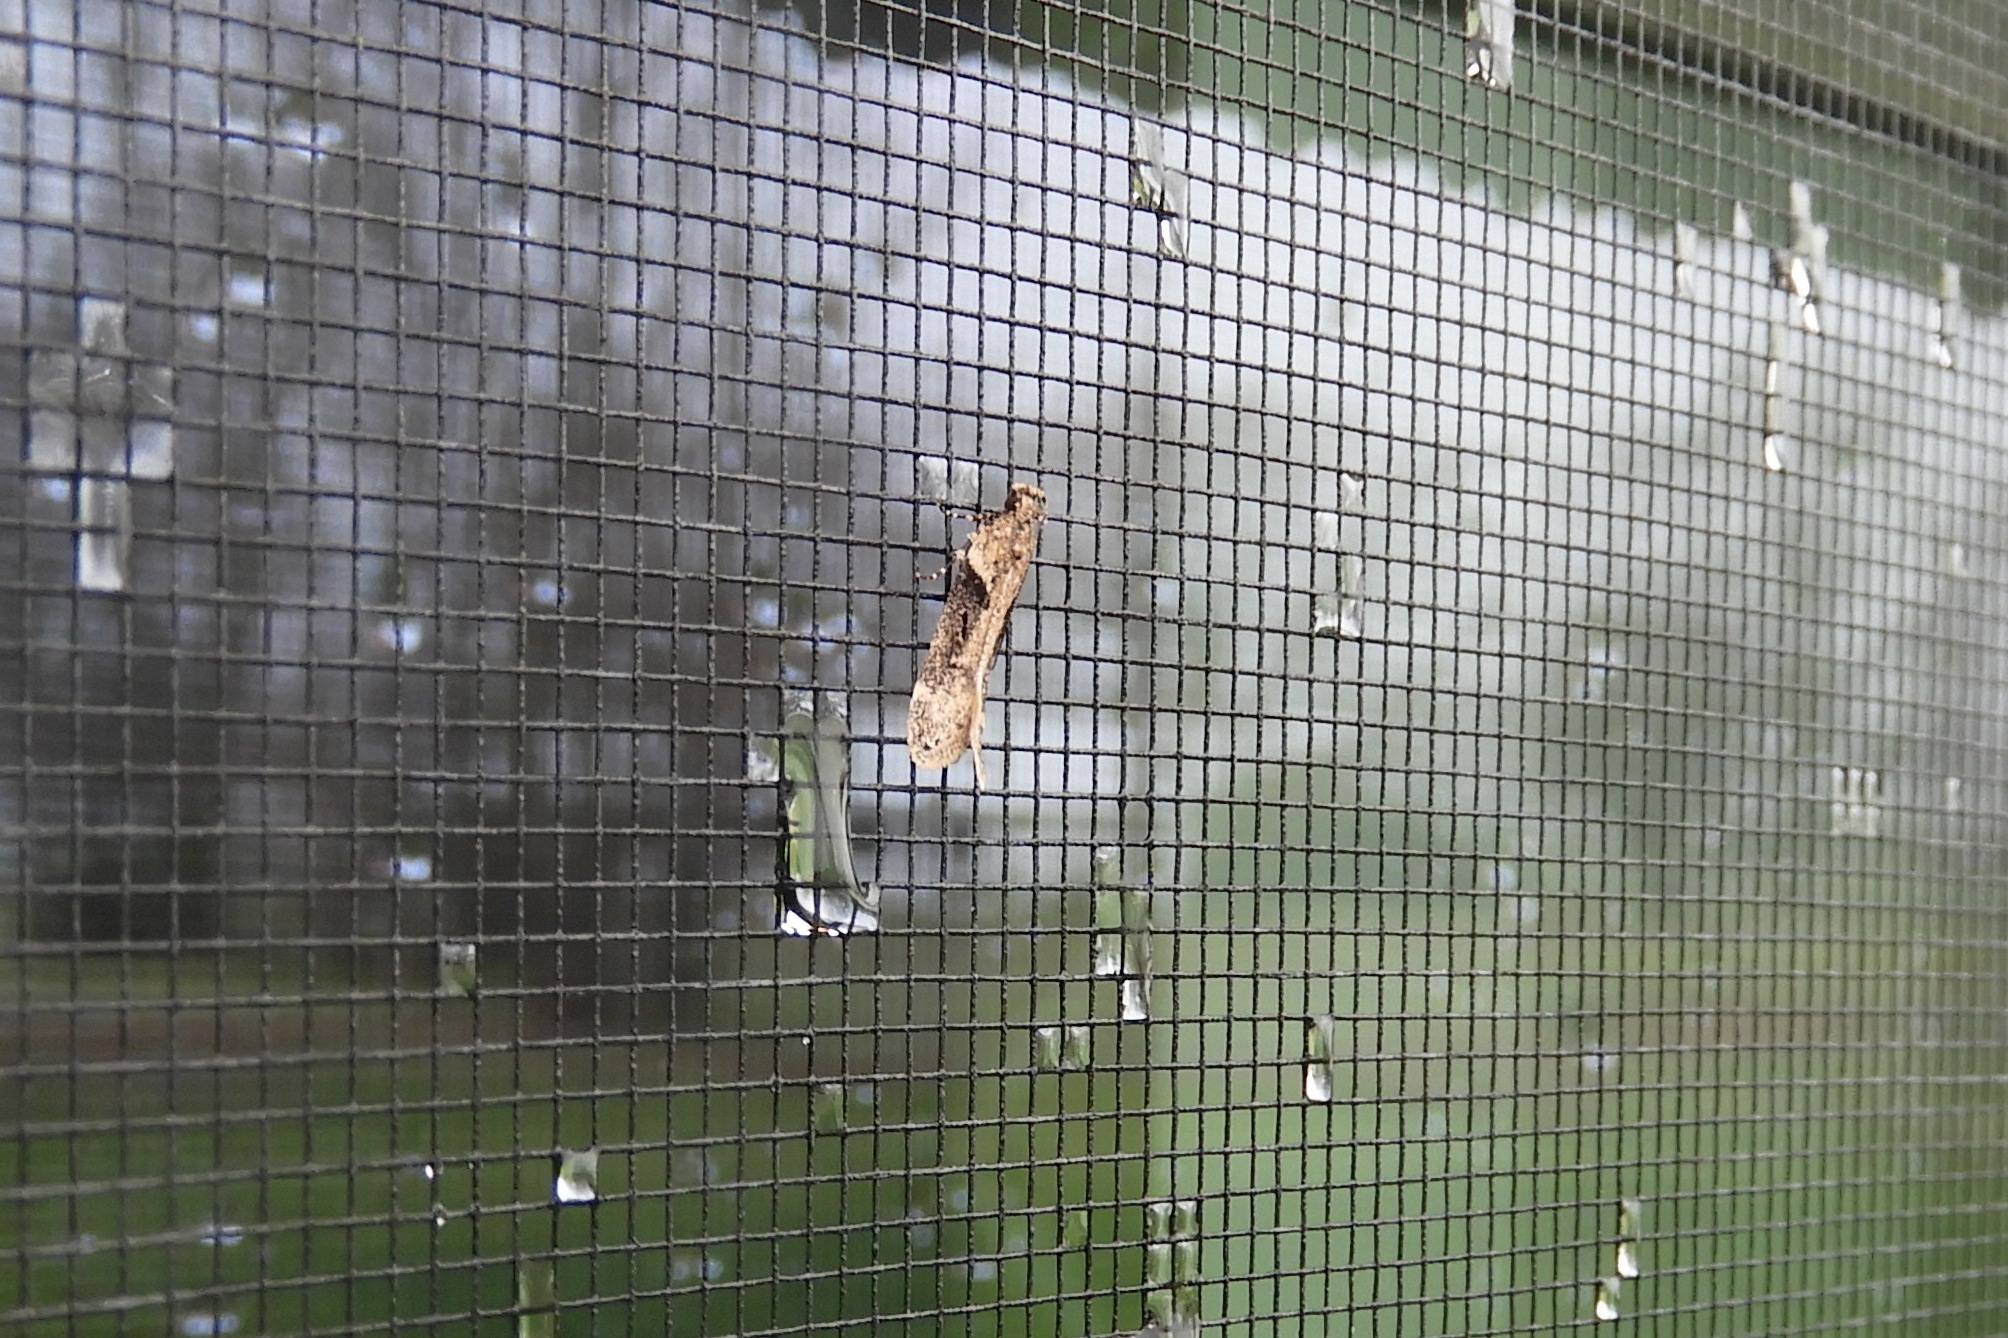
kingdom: Animalia
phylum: Arthropoda
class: Insecta
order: Lepidoptera
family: Gelechiidae
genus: Chionodes
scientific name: Chionodes mediofuscella
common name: Black-smudged chionodes moth
